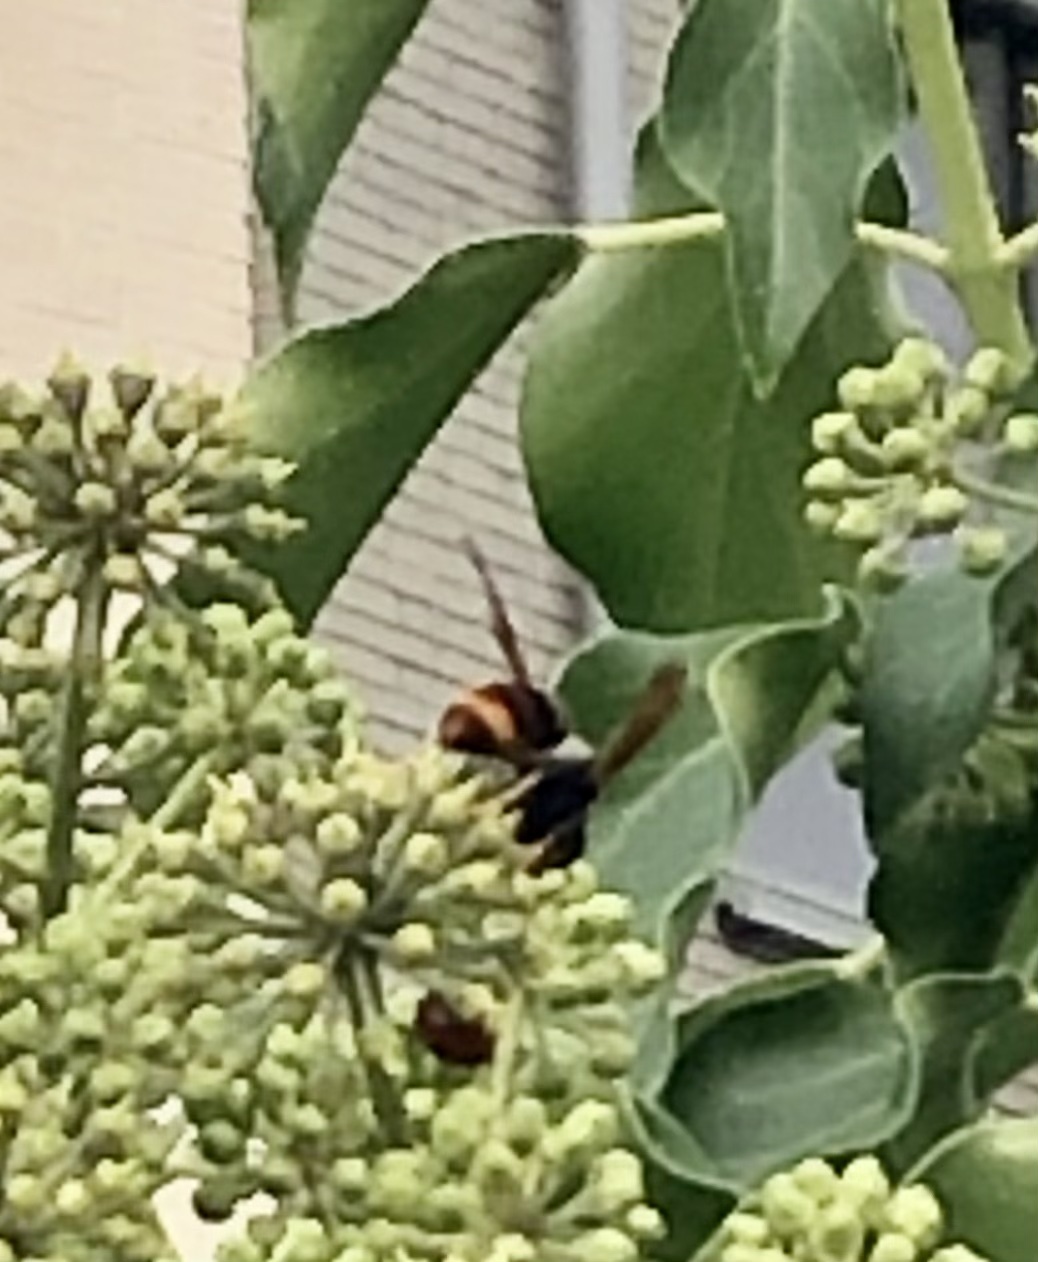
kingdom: Animalia
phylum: Arthropoda
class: Insecta
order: Hymenoptera
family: Vespidae
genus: Vespa
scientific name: Vespa velutina
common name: Asian hornet
